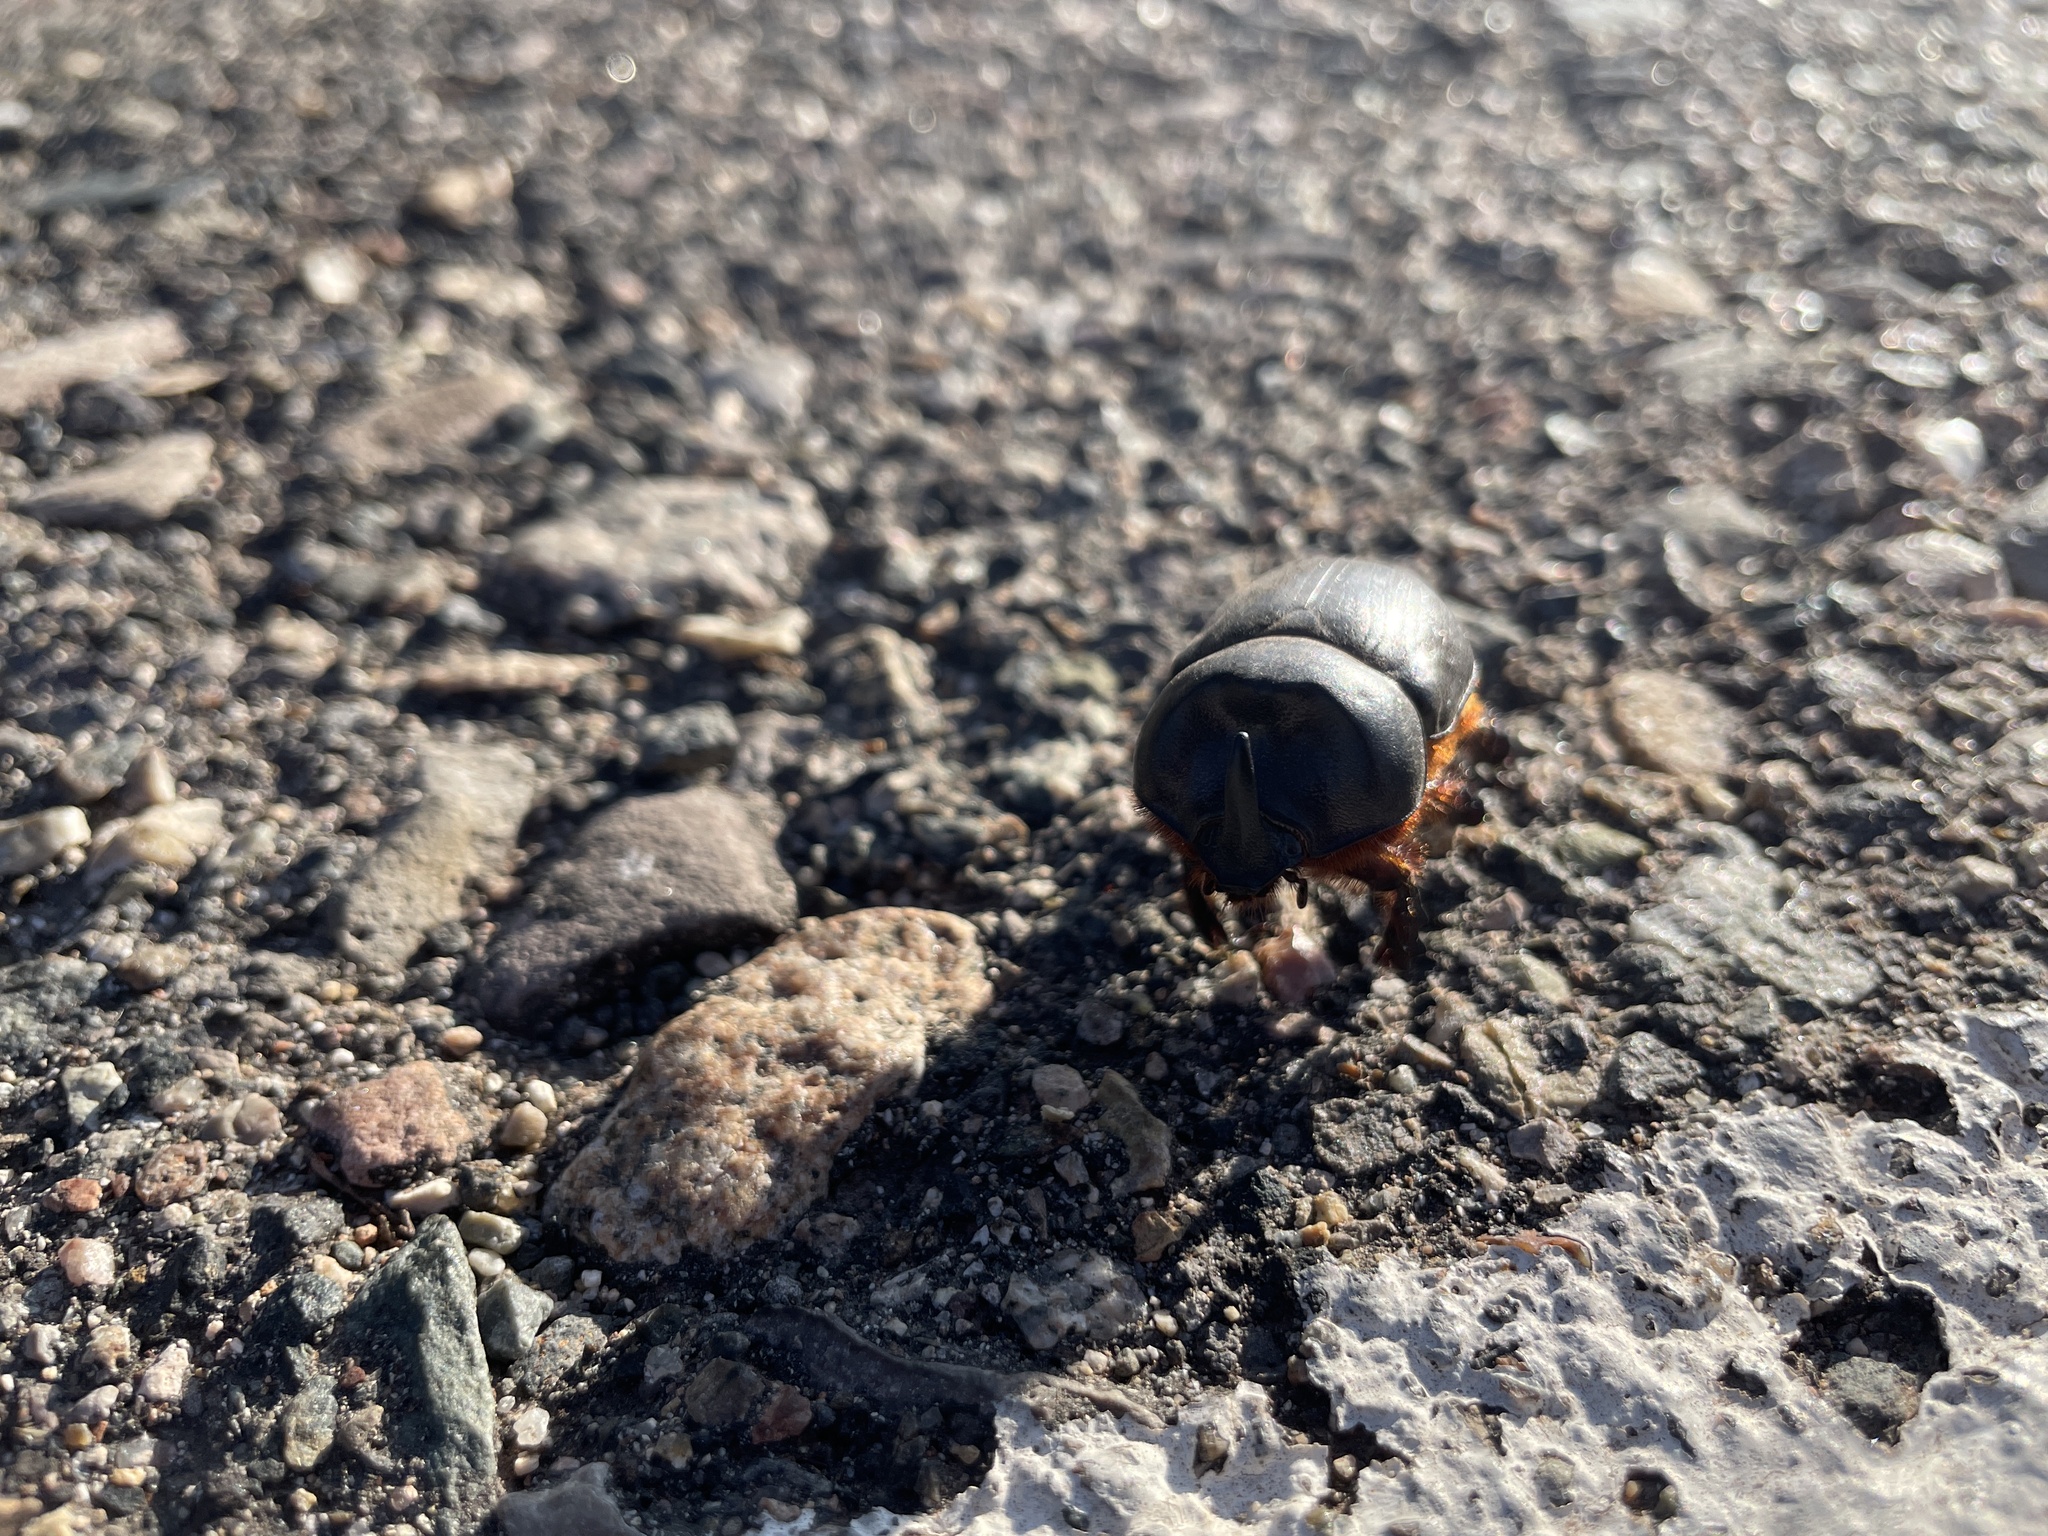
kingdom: Animalia
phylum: Arthropoda
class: Insecta
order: Coleoptera
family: Scarabaeidae
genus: Xyloryctes
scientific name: Xyloryctes thestalus
